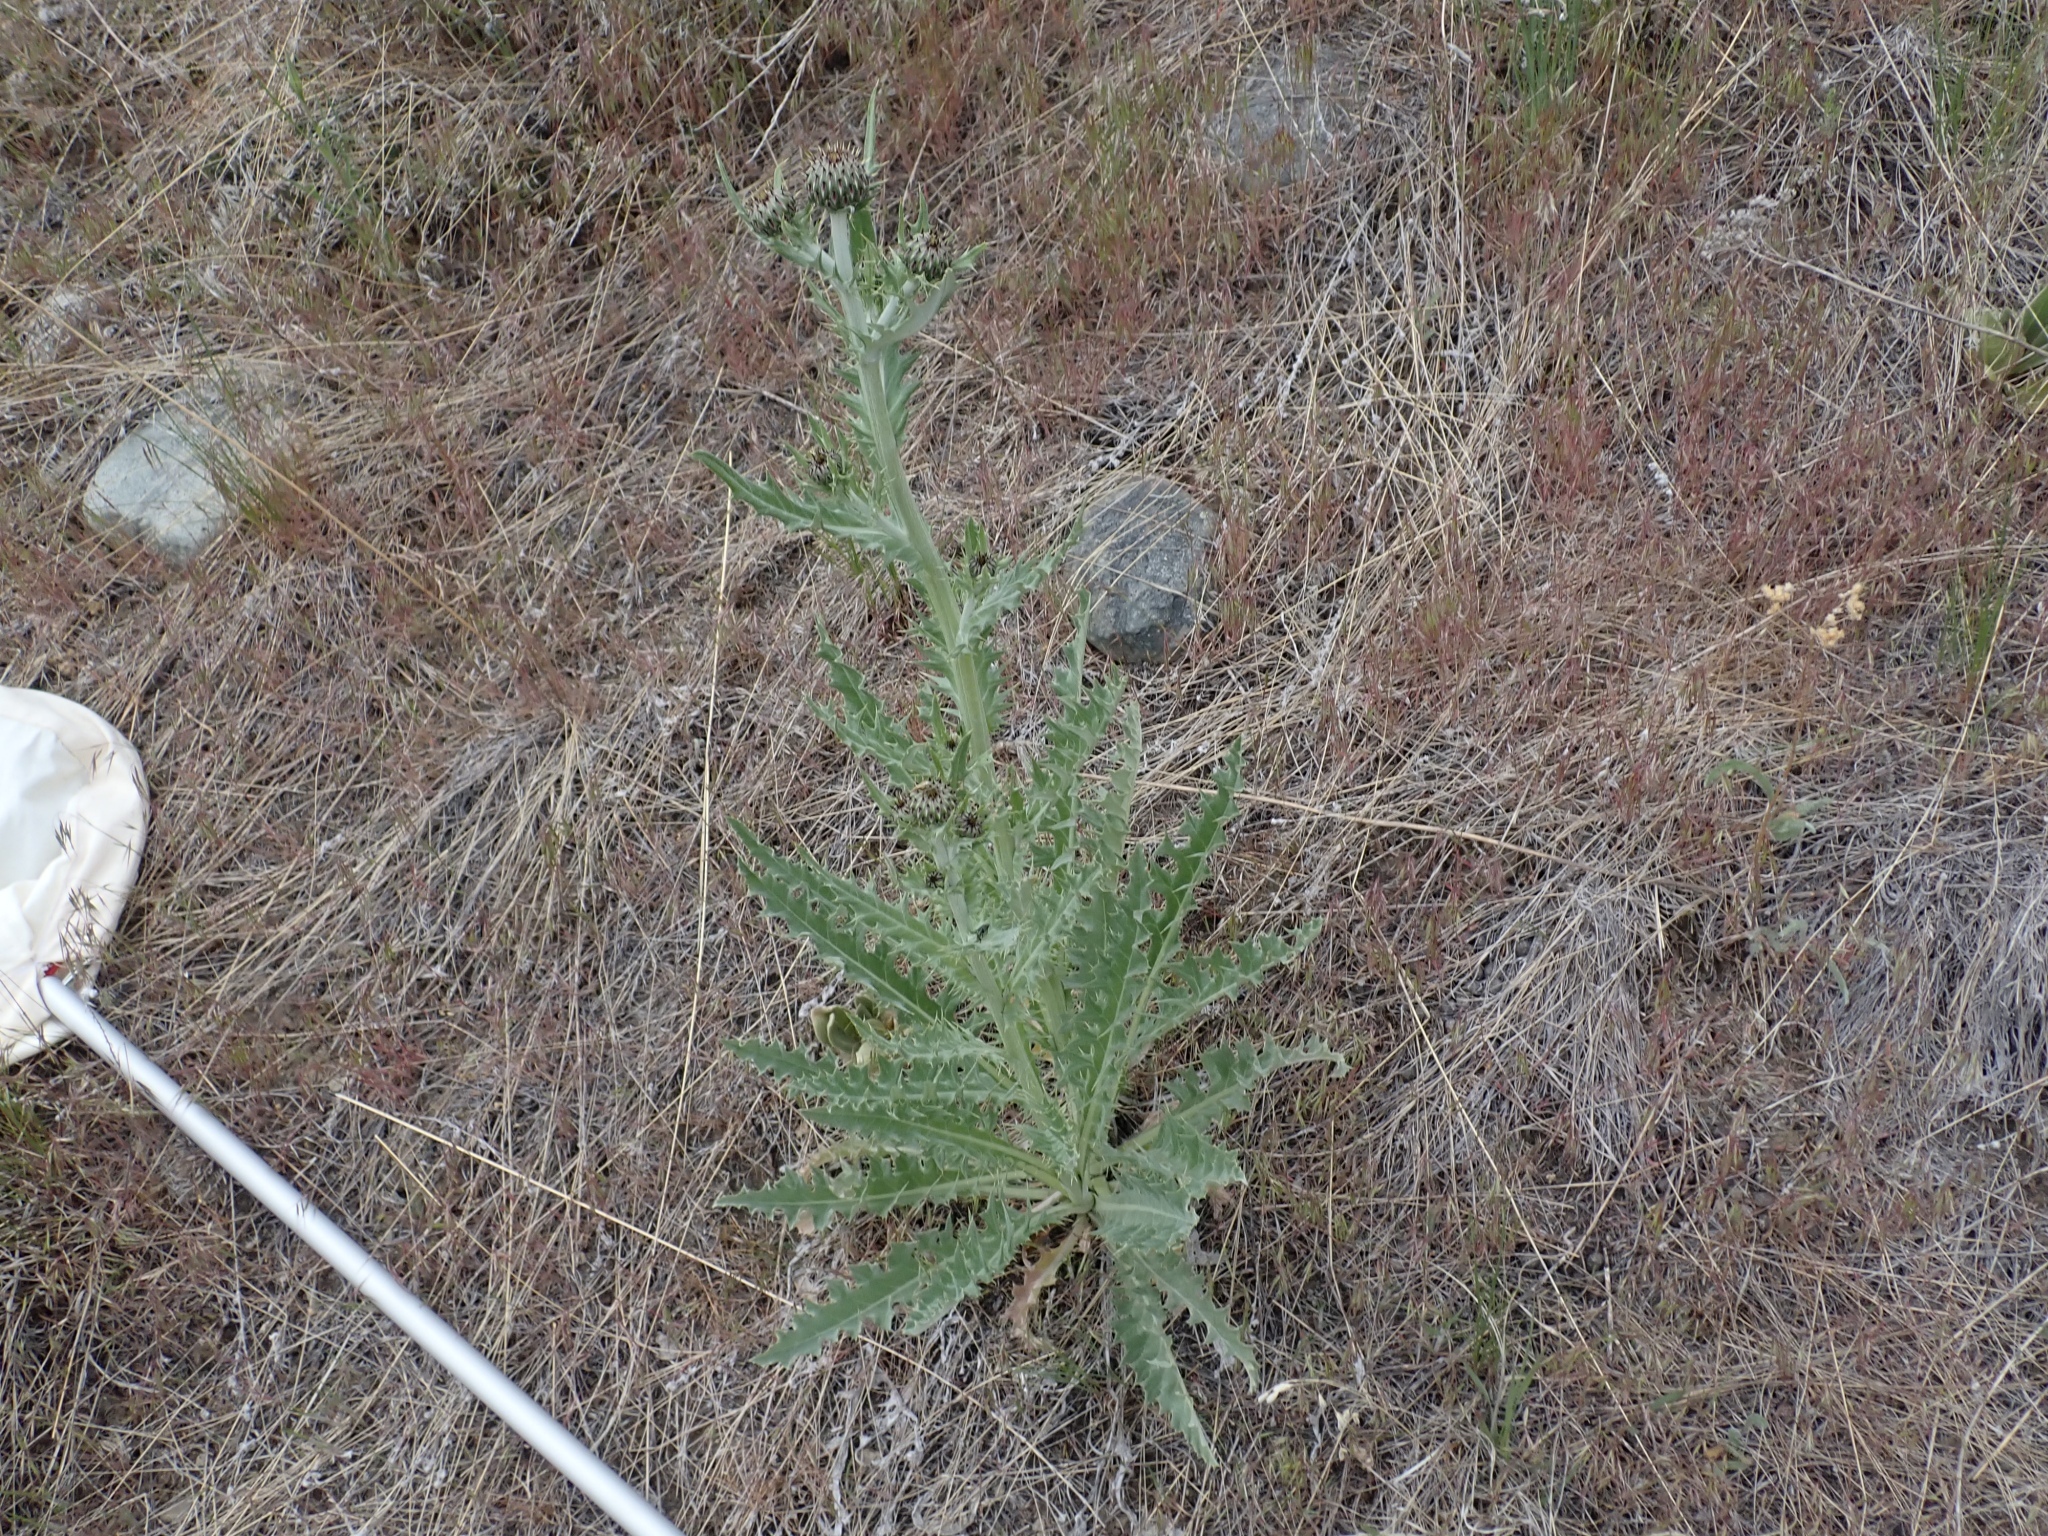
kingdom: Plantae
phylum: Tracheophyta
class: Magnoliopsida
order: Asterales
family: Asteraceae
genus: Cirsium
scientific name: Cirsium undulatum
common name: Pasture thistle
